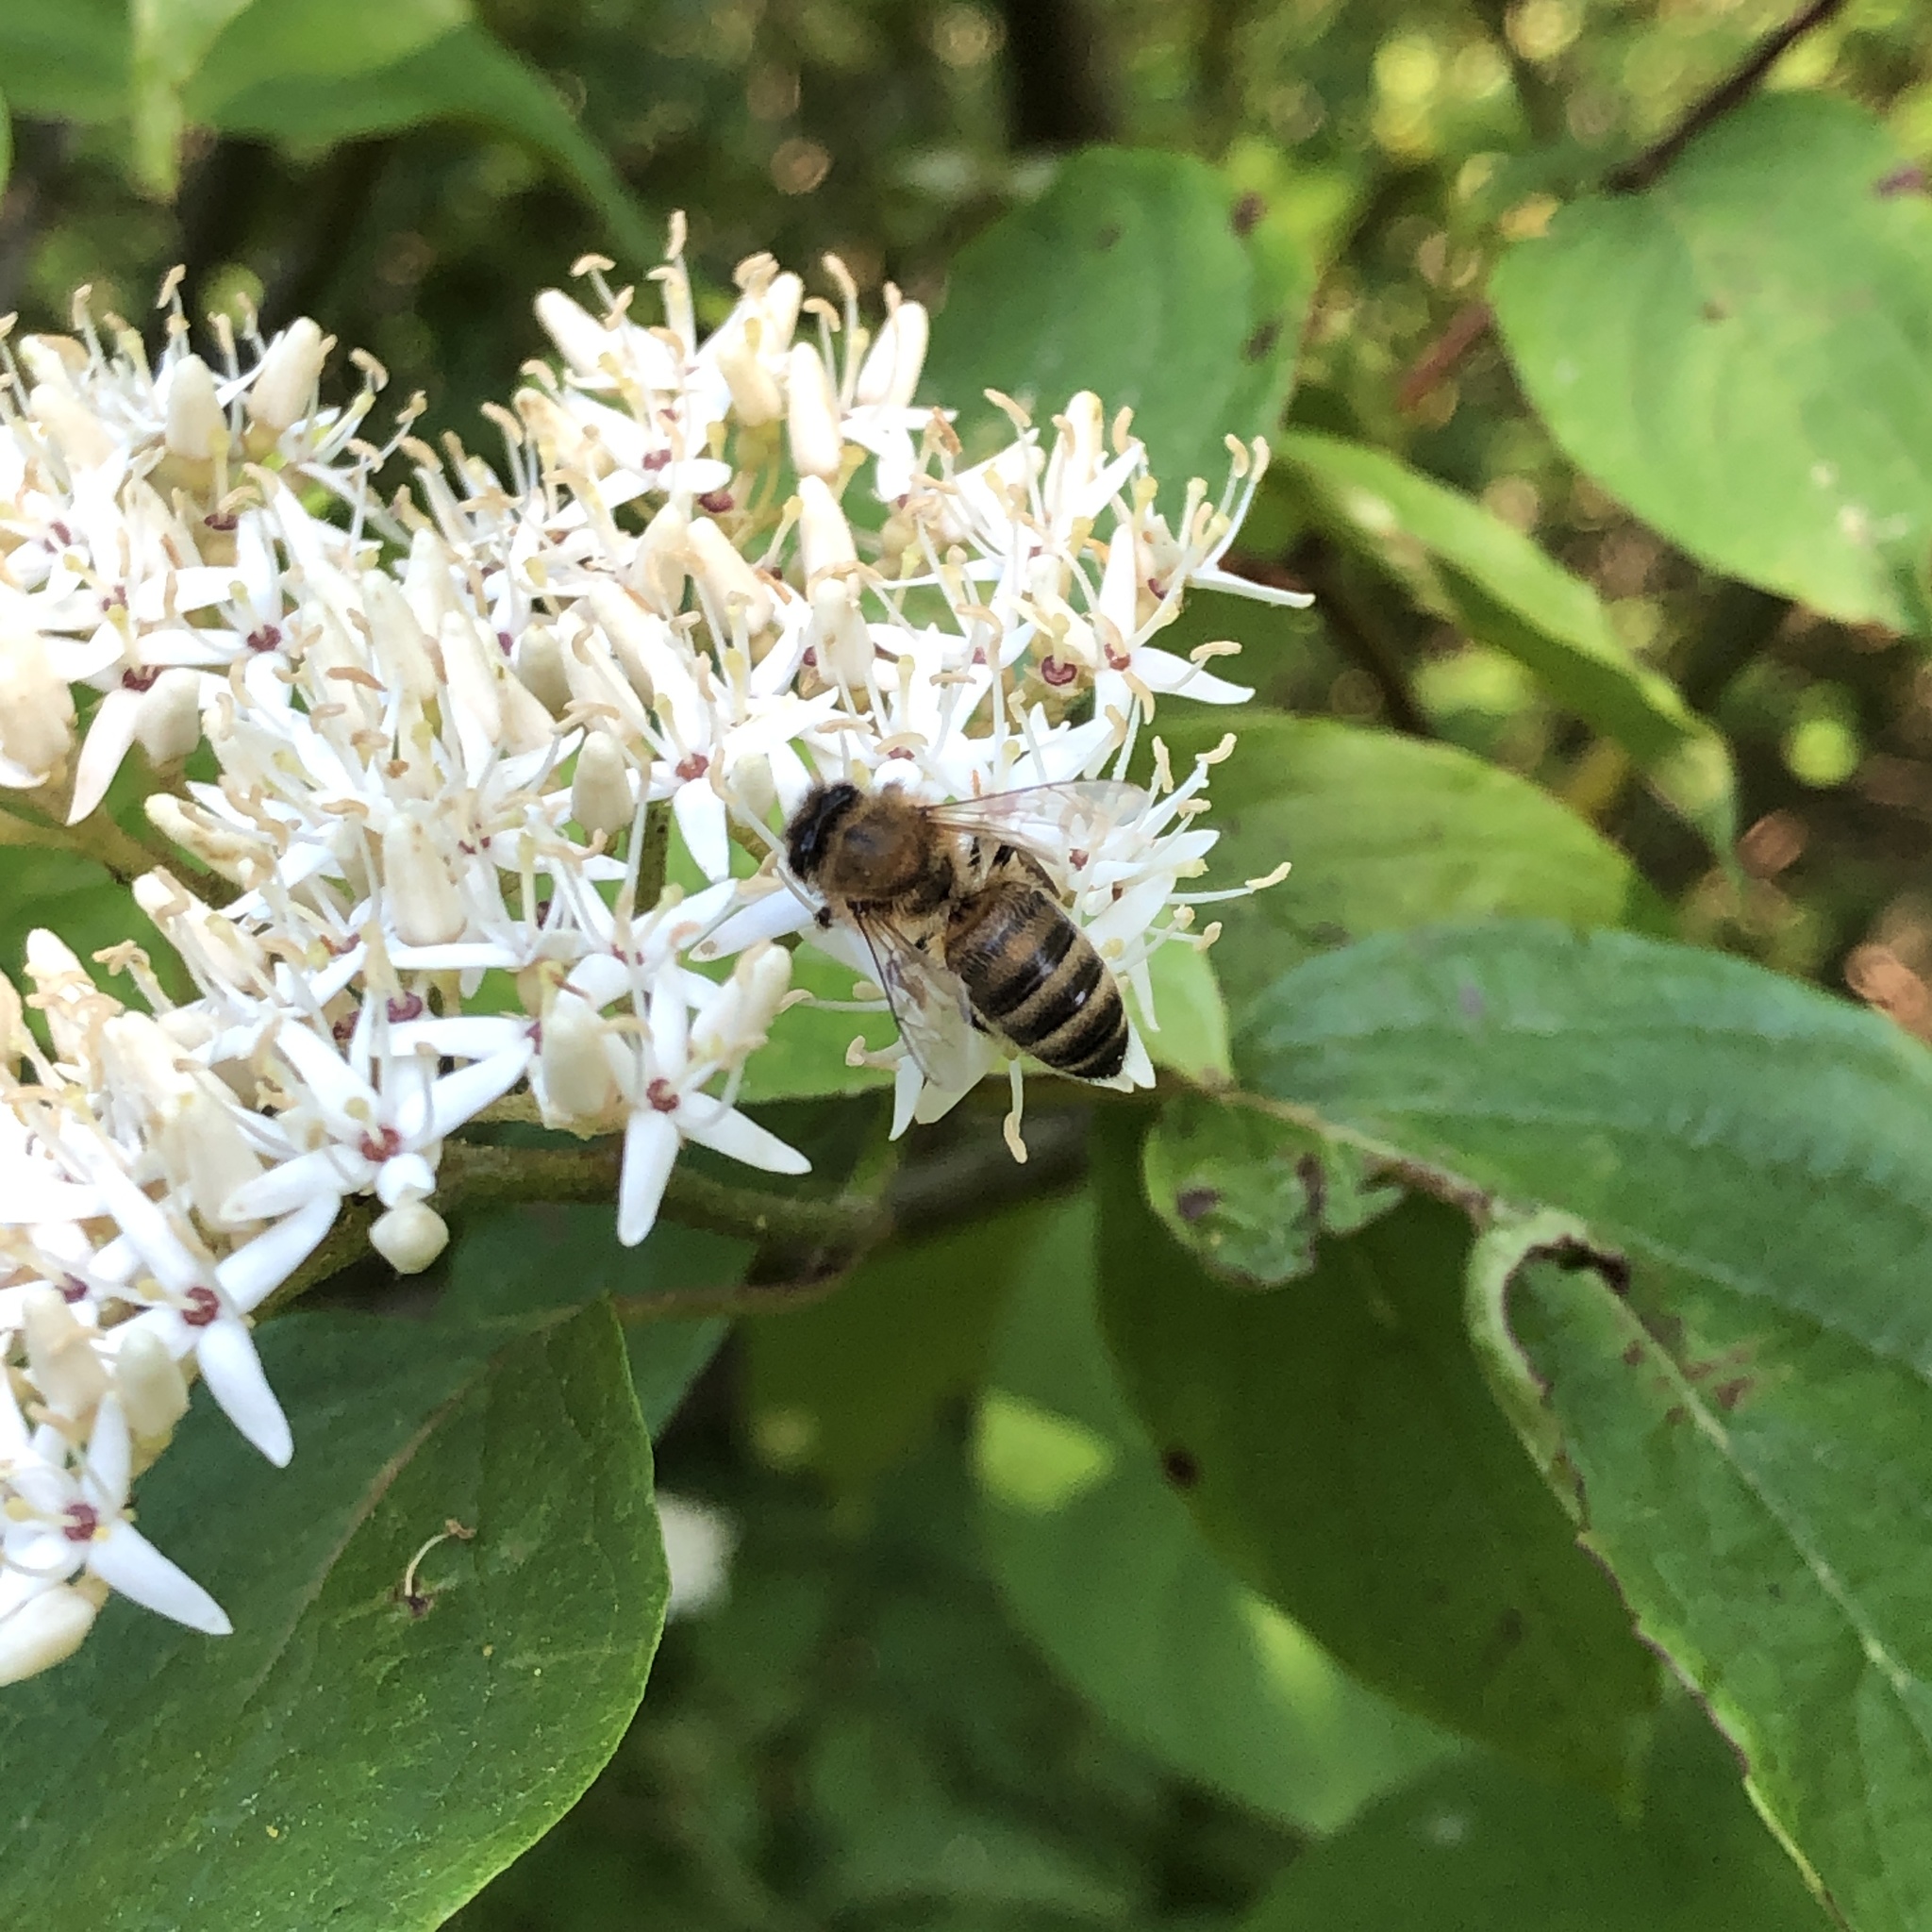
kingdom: Animalia
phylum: Arthropoda
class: Insecta
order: Hymenoptera
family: Apidae
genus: Apis
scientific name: Apis mellifera
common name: Honey bee
